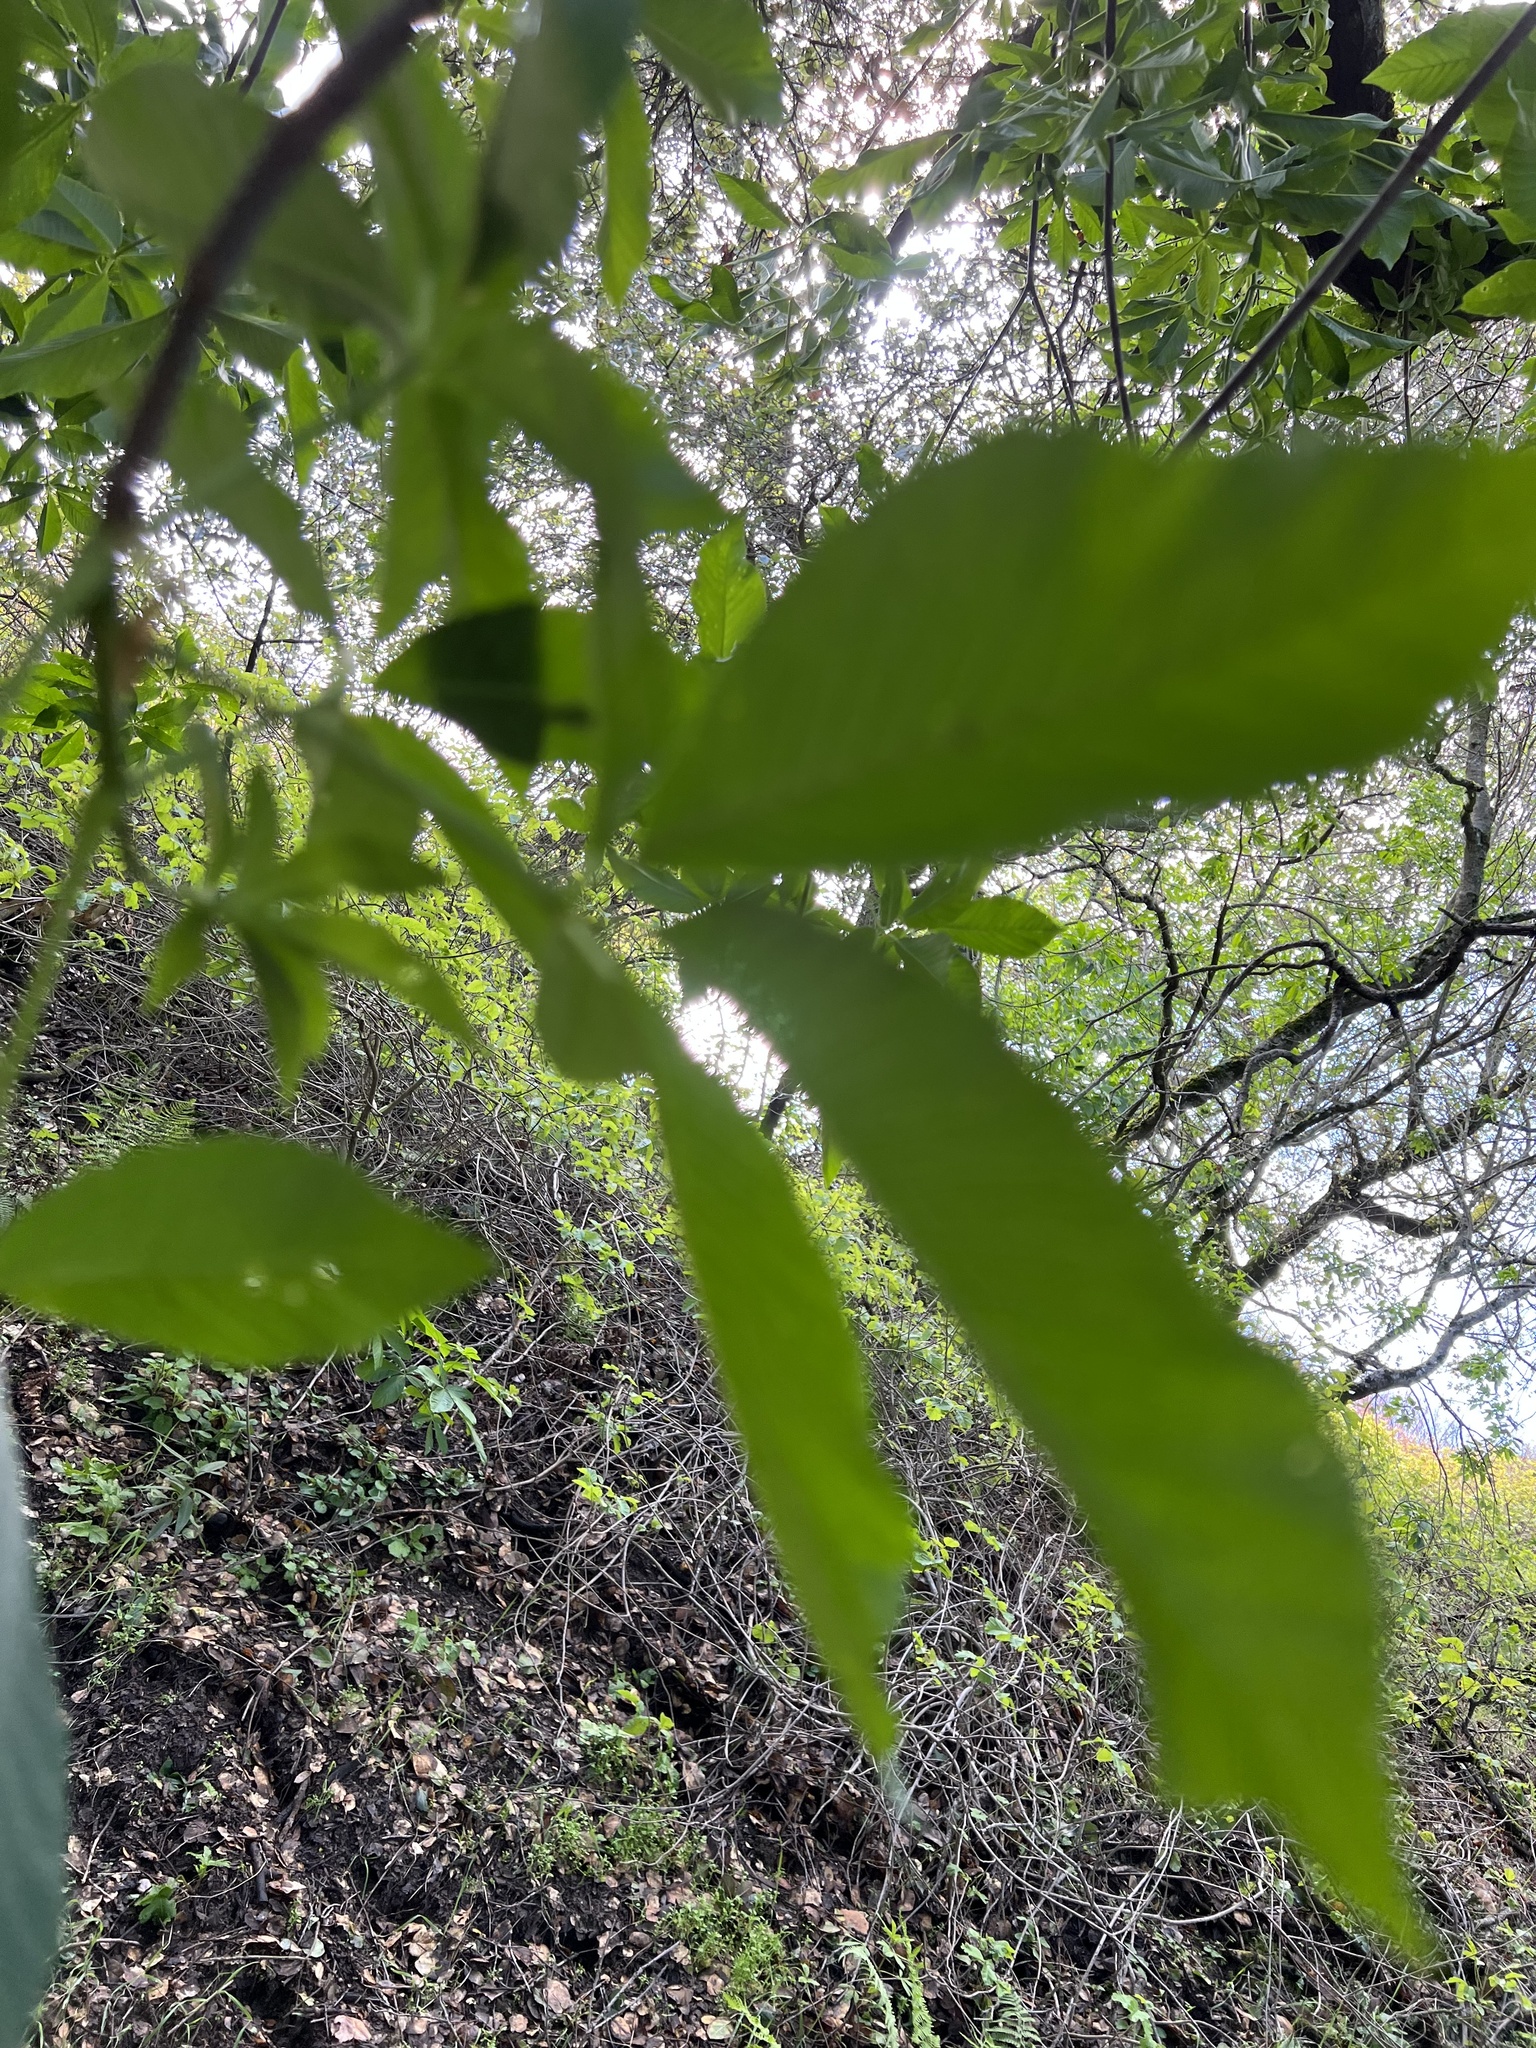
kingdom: Plantae
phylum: Tracheophyta
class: Magnoliopsida
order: Sapindales
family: Sapindaceae
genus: Aesculus
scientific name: Aesculus californica
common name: California buckeye
